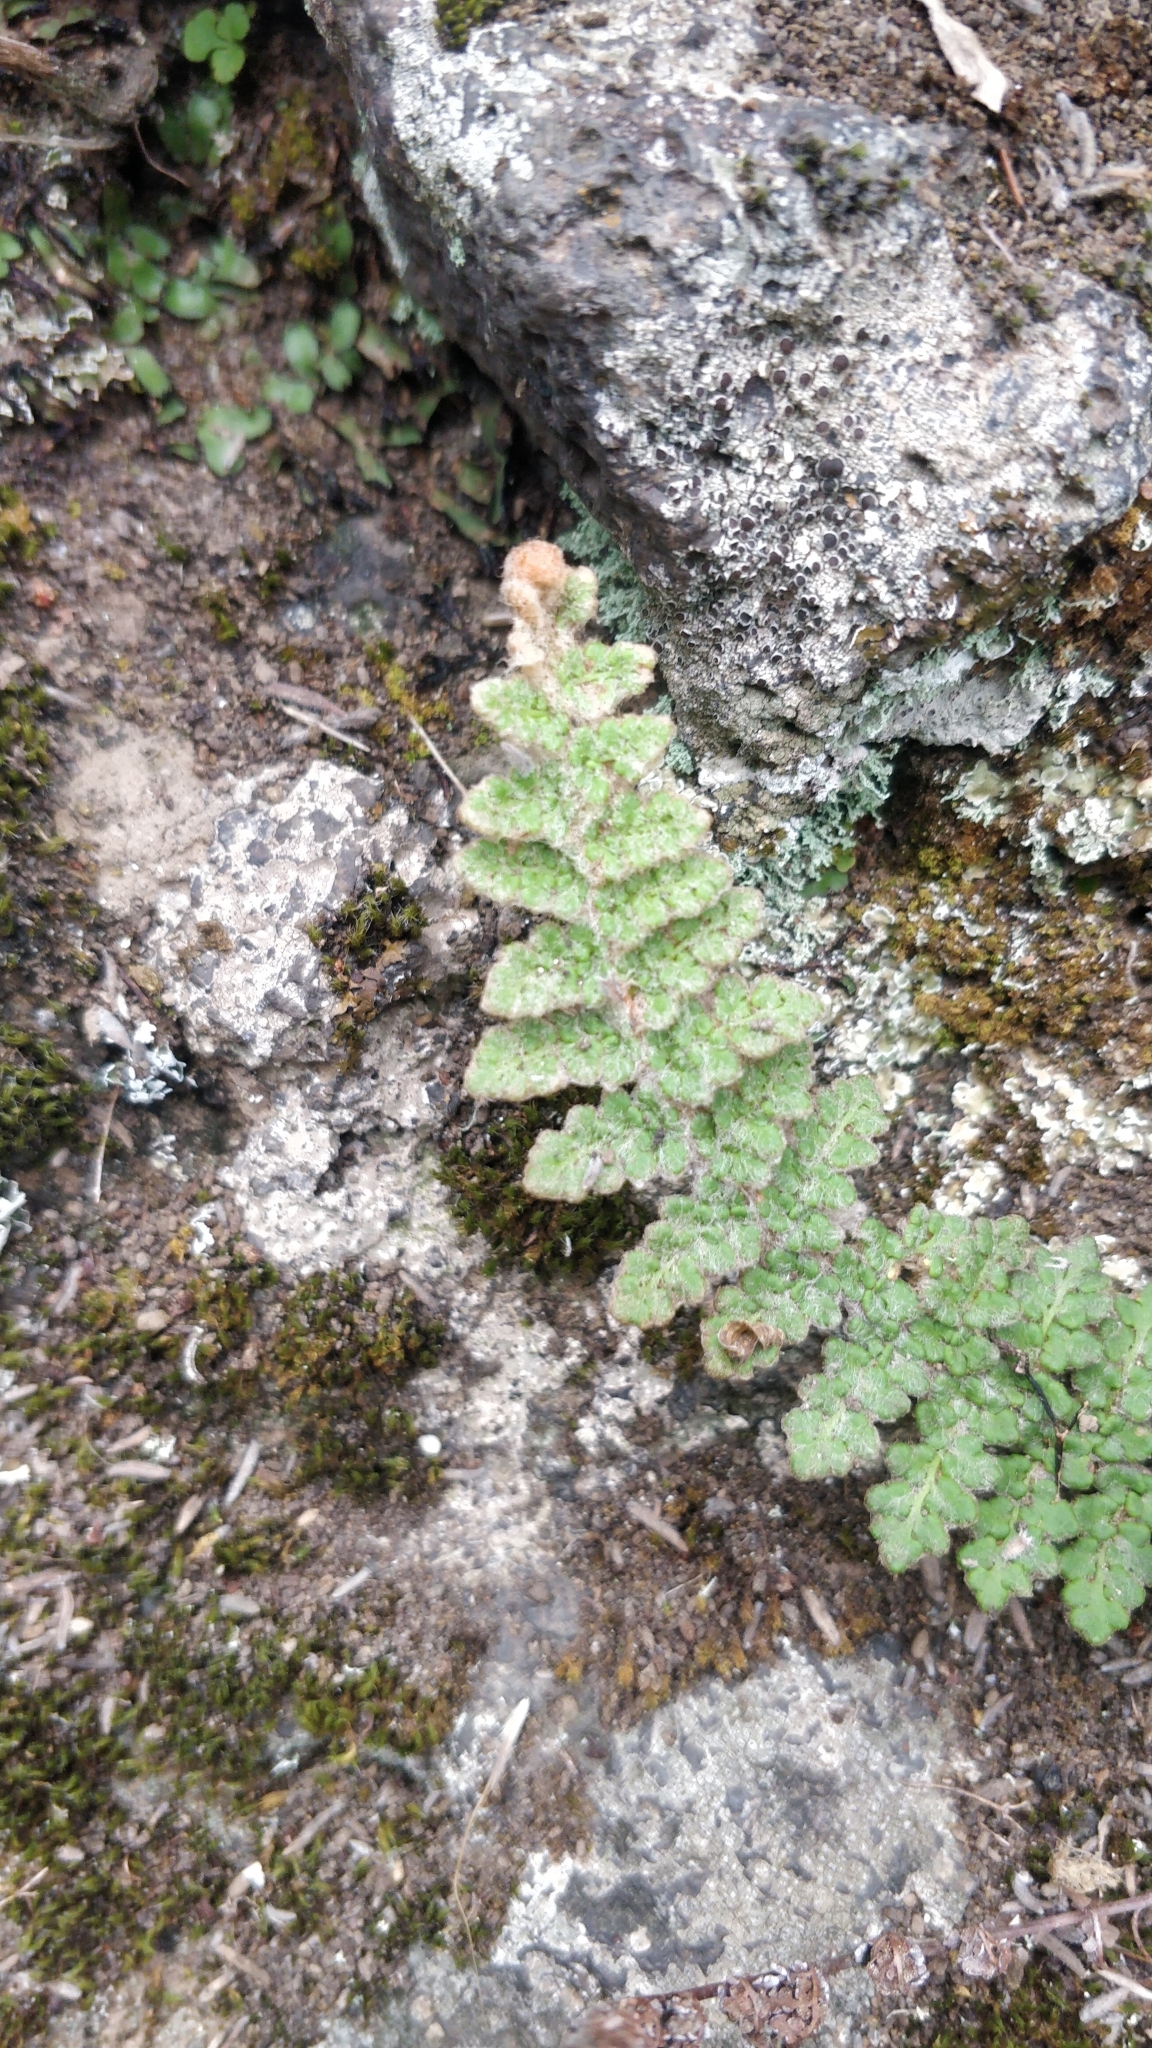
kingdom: Plantae
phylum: Tracheophyta
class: Polypodiopsida
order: Polypodiales
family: Pteridaceae
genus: Cosentinia
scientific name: Cosentinia vellea
